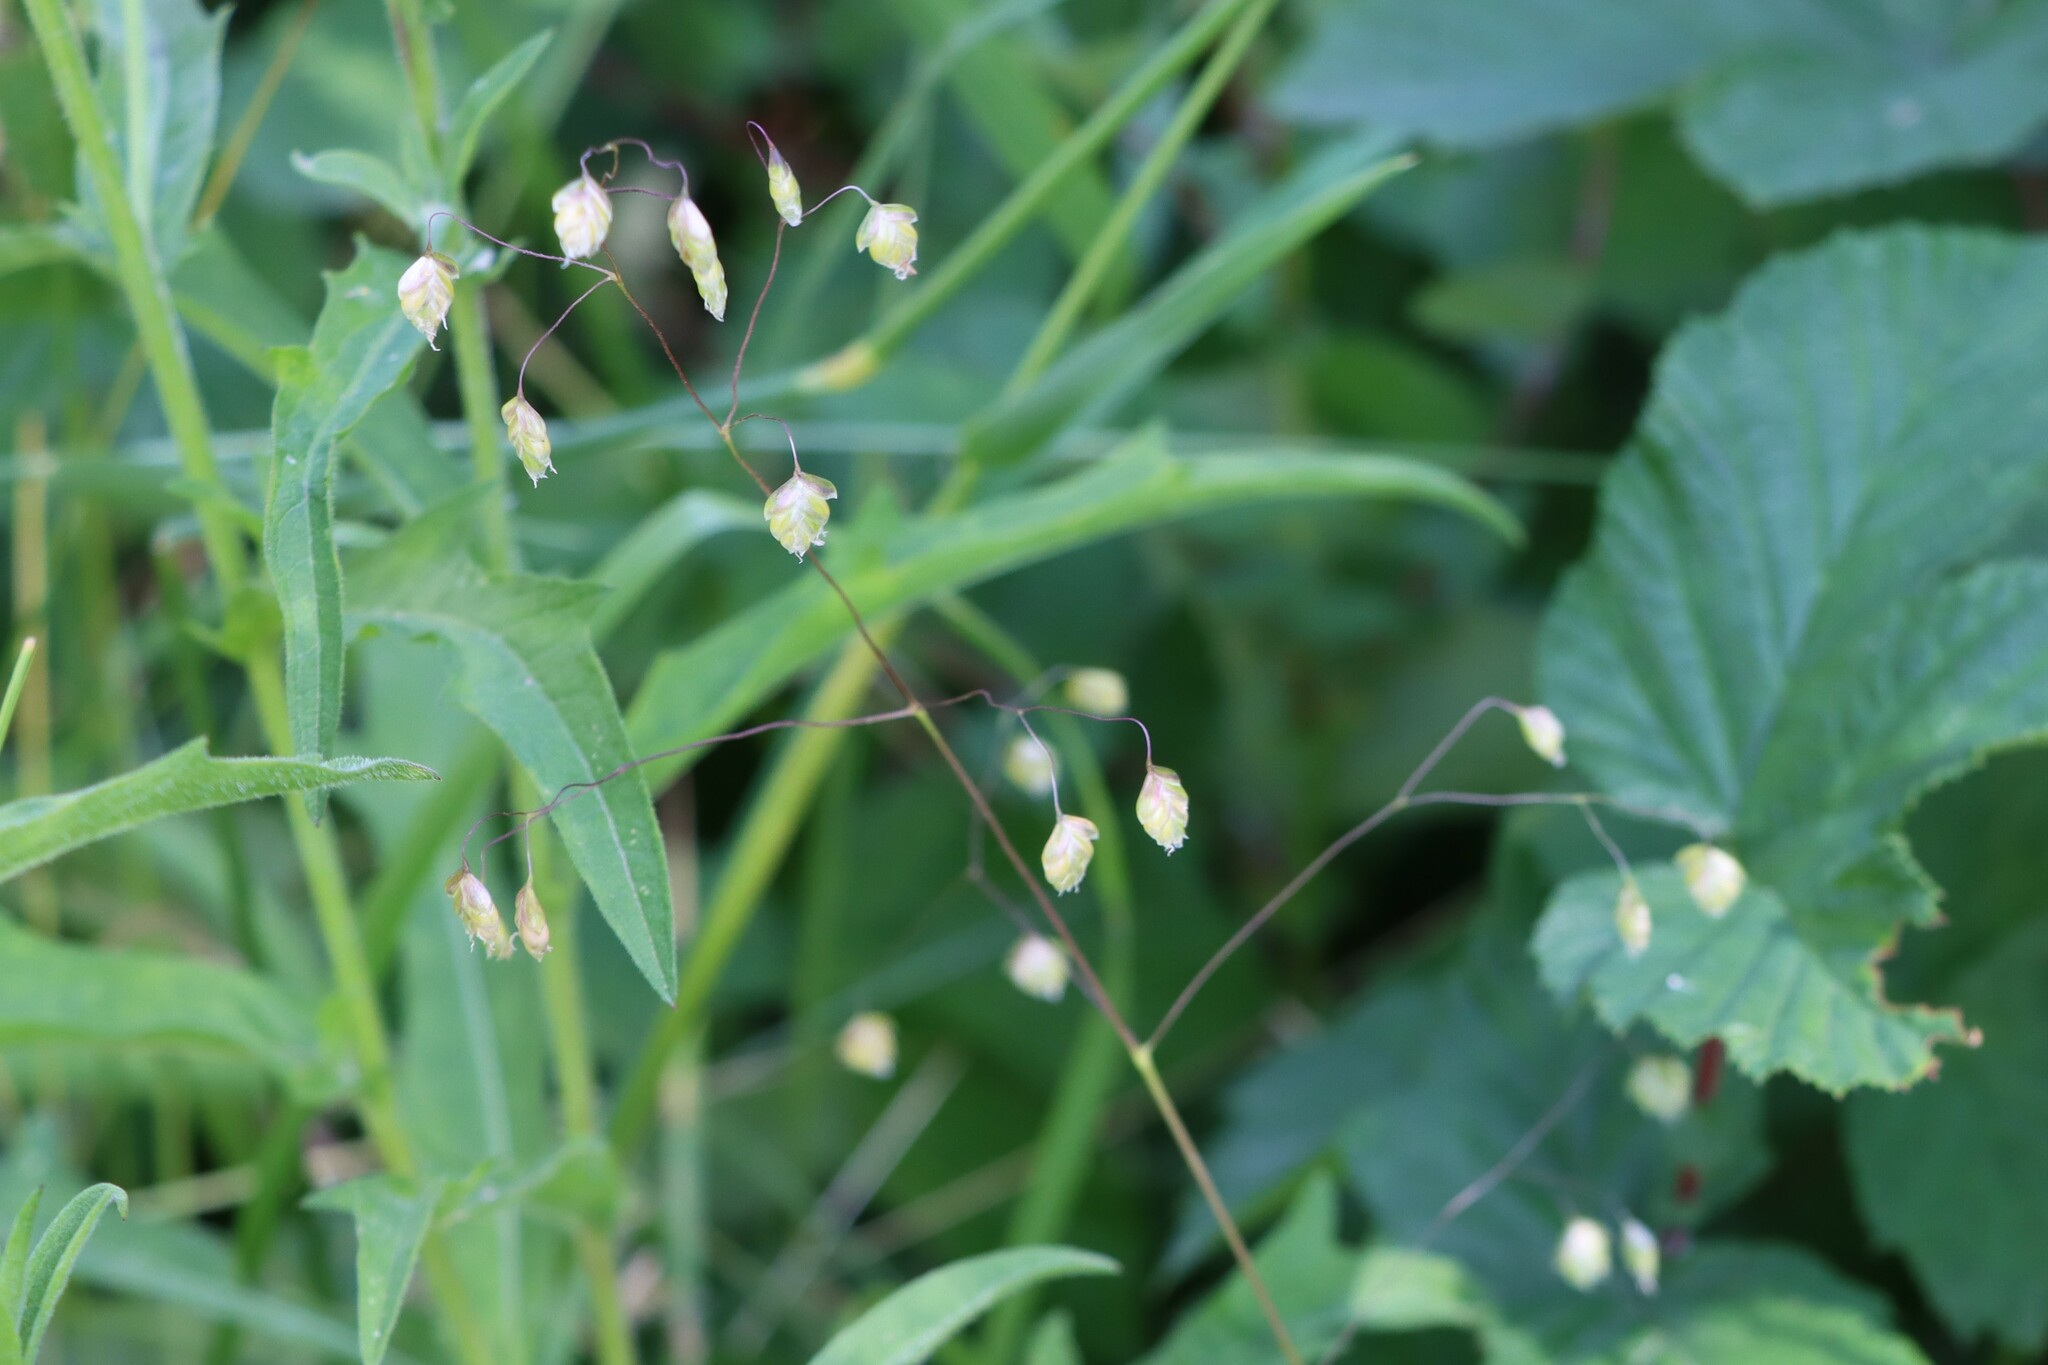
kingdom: Plantae
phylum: Tracheophyta
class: Liliopsida
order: Poales
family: Poaceae
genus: Briza
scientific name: Briza media
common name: Quaking grass
